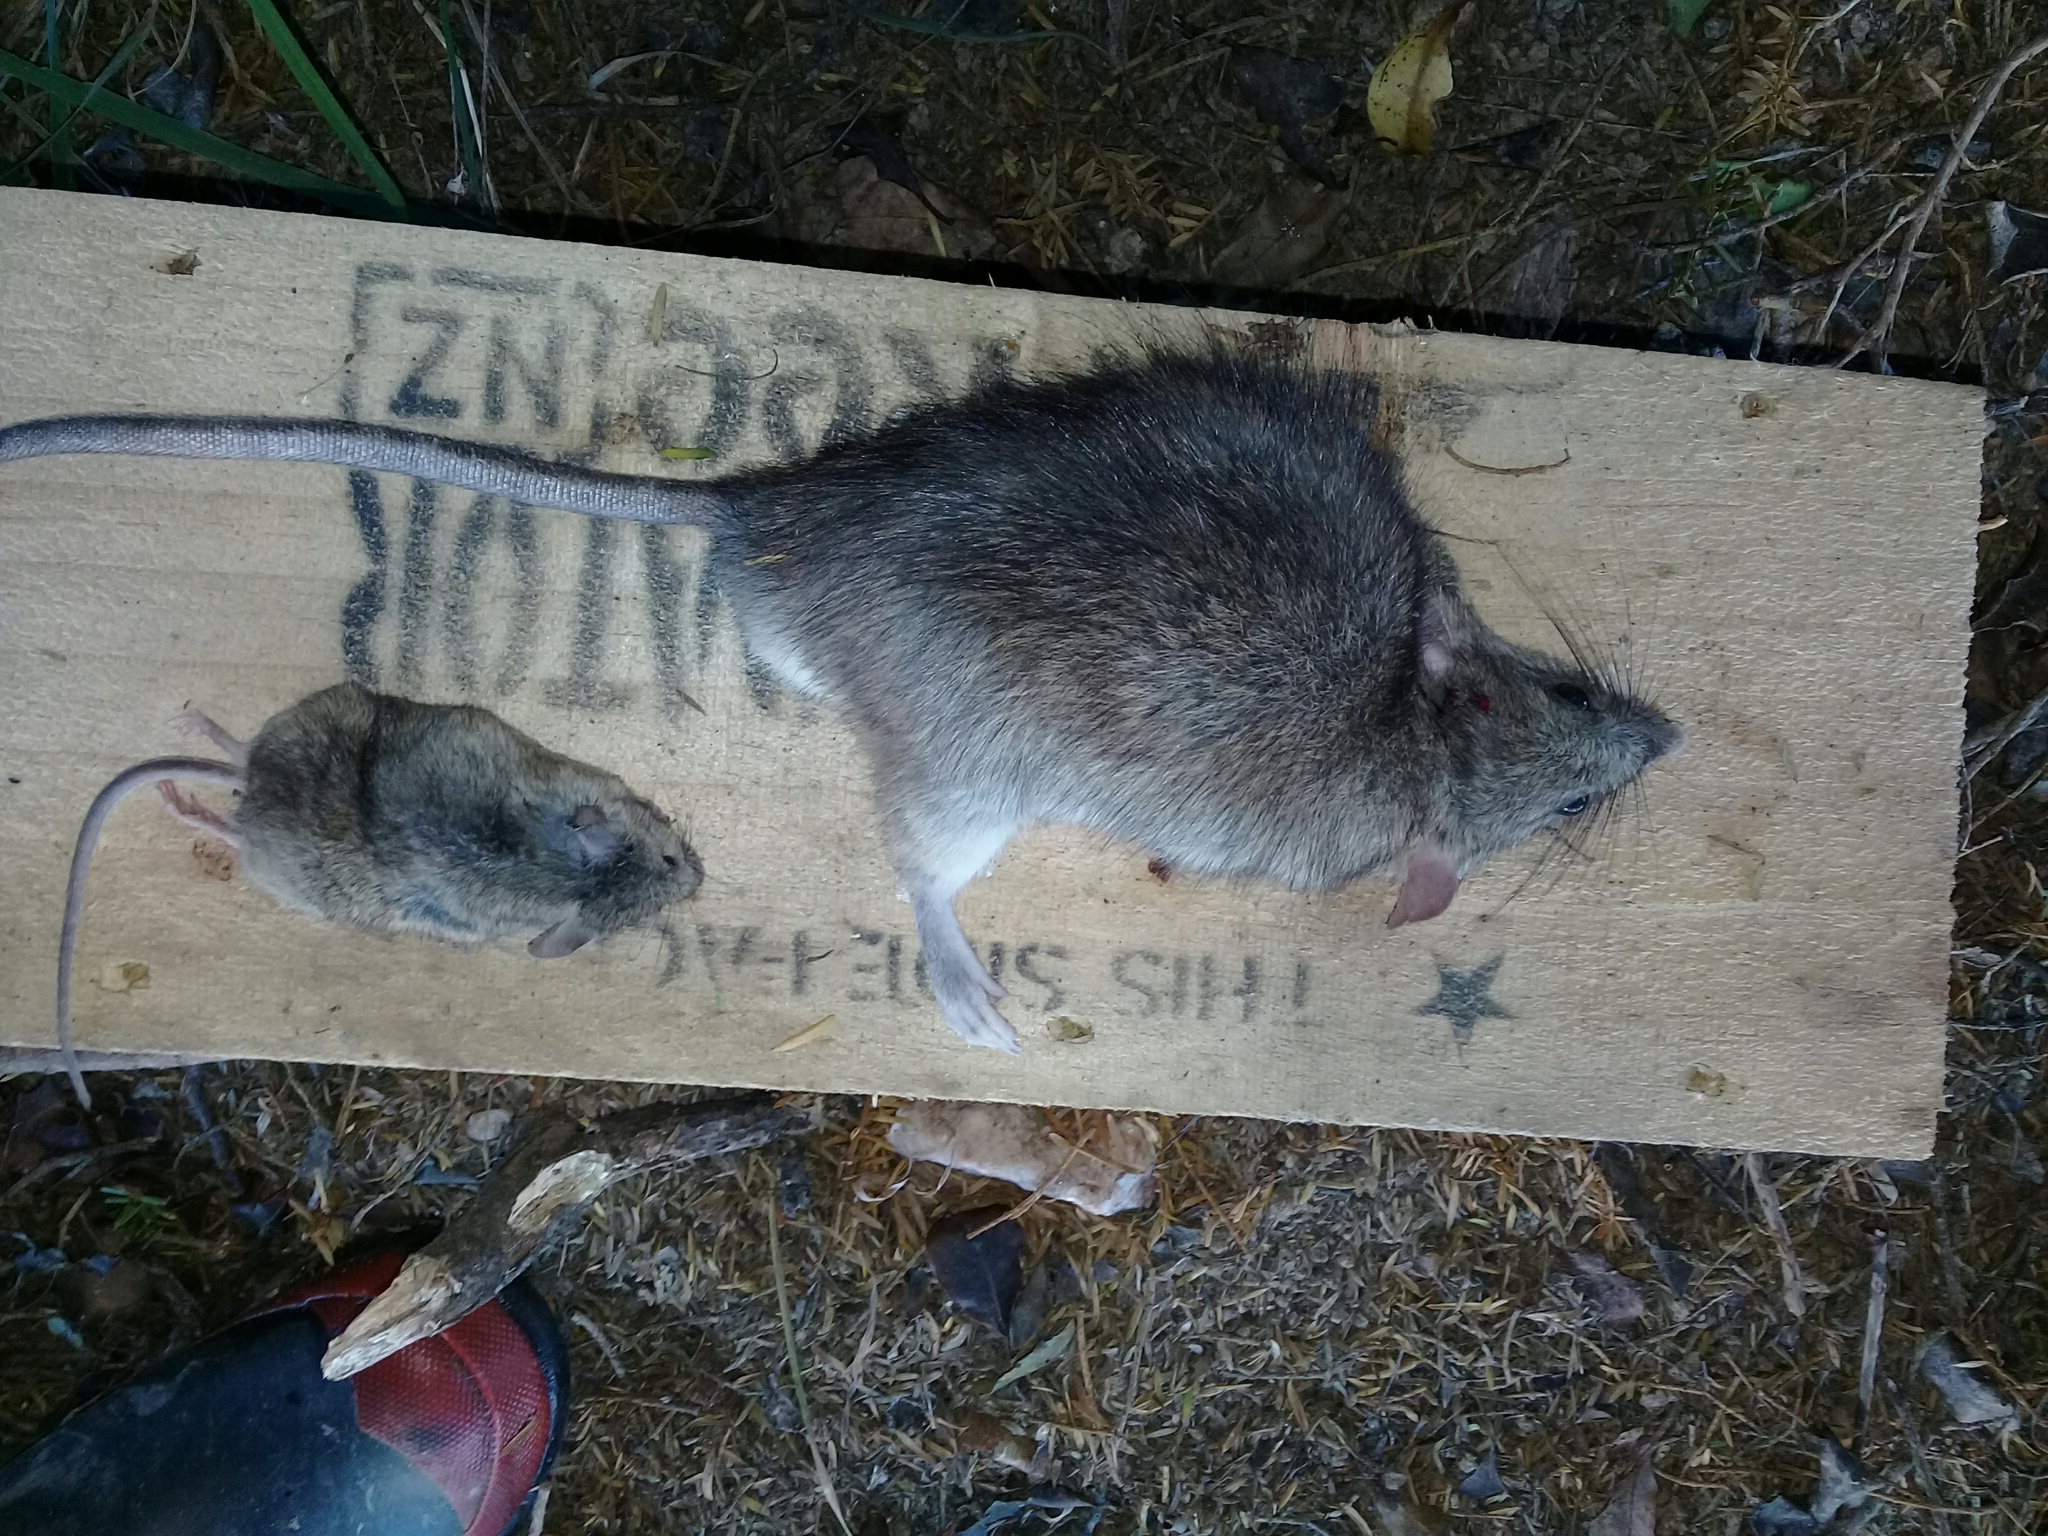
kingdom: Animalia
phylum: Chordata
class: Mammalia
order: Rodentia
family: Muridae
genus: Rattus
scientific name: Rattus rattus
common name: Black rat
